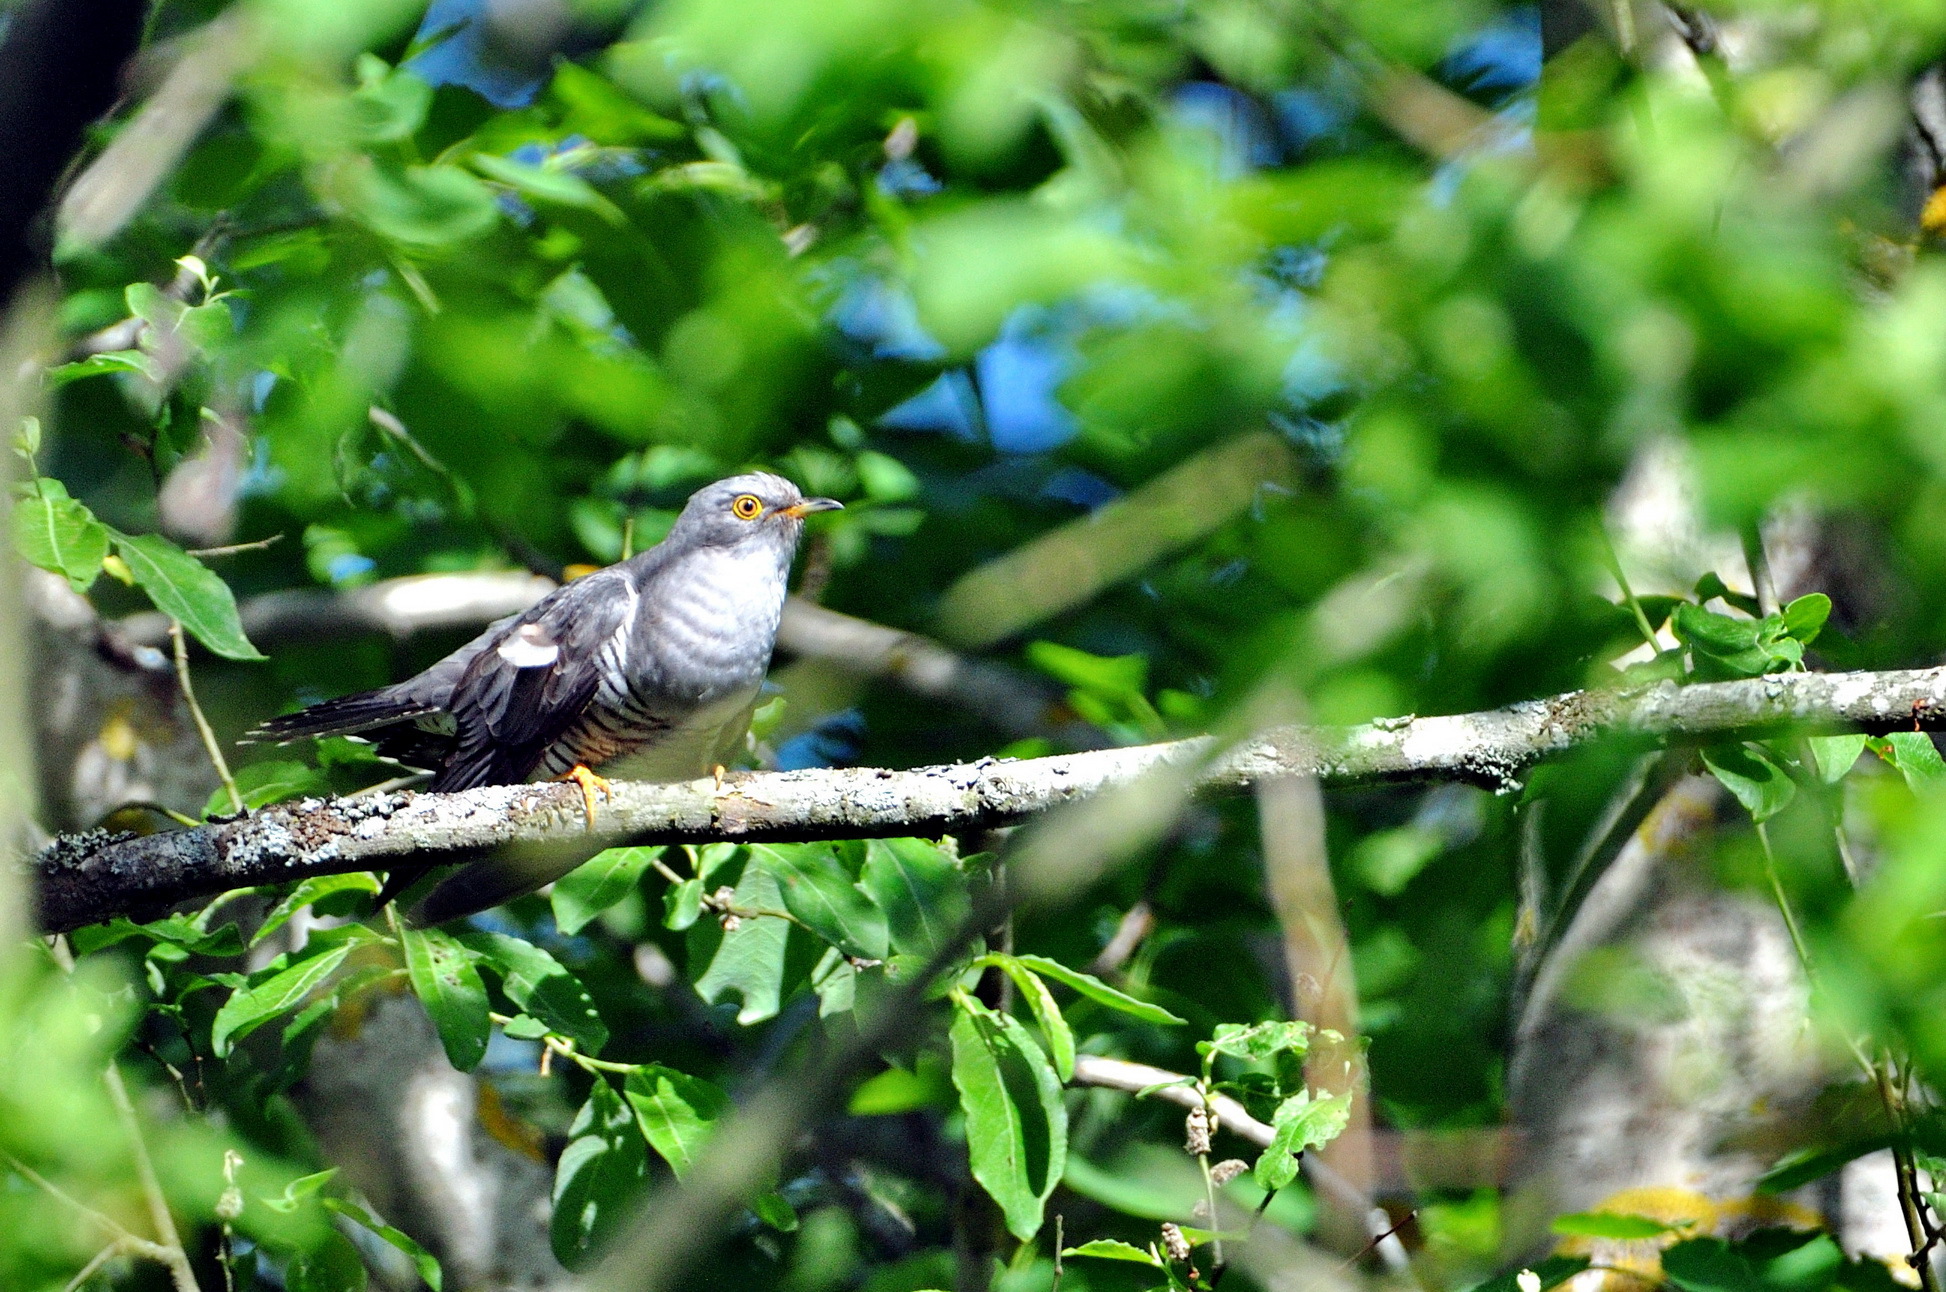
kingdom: Animalia
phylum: Chordata
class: Aves
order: Cuculiformes
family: Cuculidae
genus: Cuculus
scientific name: Cuculus canorus
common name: Common cuckoo
